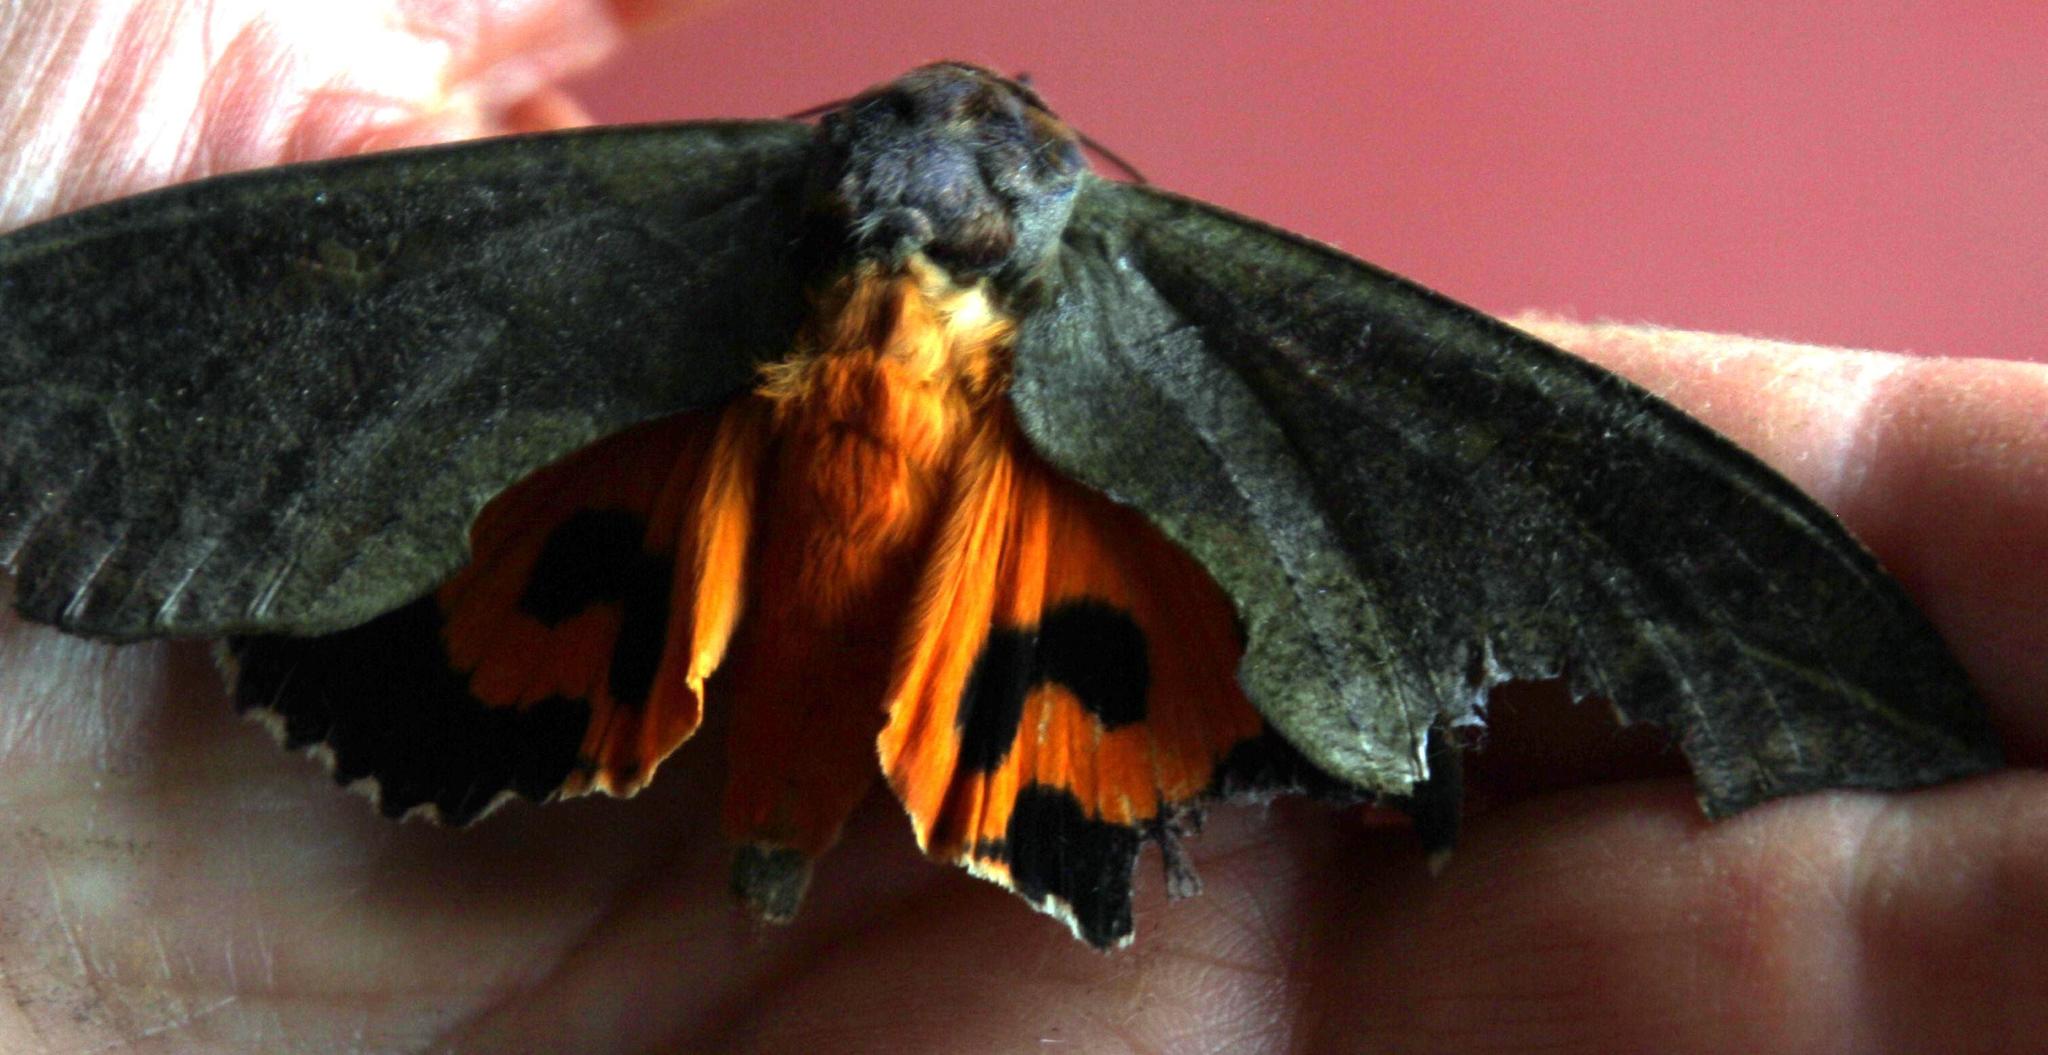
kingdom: Animalia
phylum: Arthropoda
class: Insecta
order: Lepidoptera
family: Erebidae
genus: Eudocima
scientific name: Eudocima afrikana
